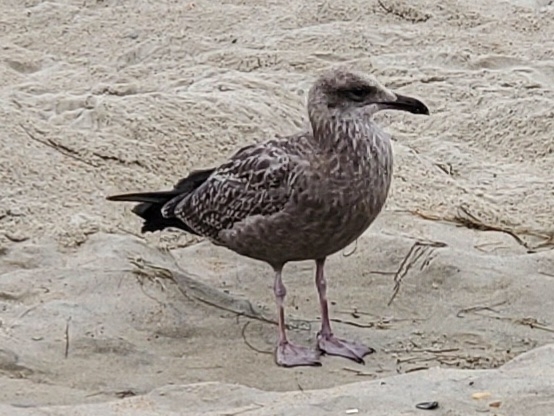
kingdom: Animalia
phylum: Chordata
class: Aves
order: Charadriiformes
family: Laridae
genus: Larus
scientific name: Larus argentatus
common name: Herring gull
